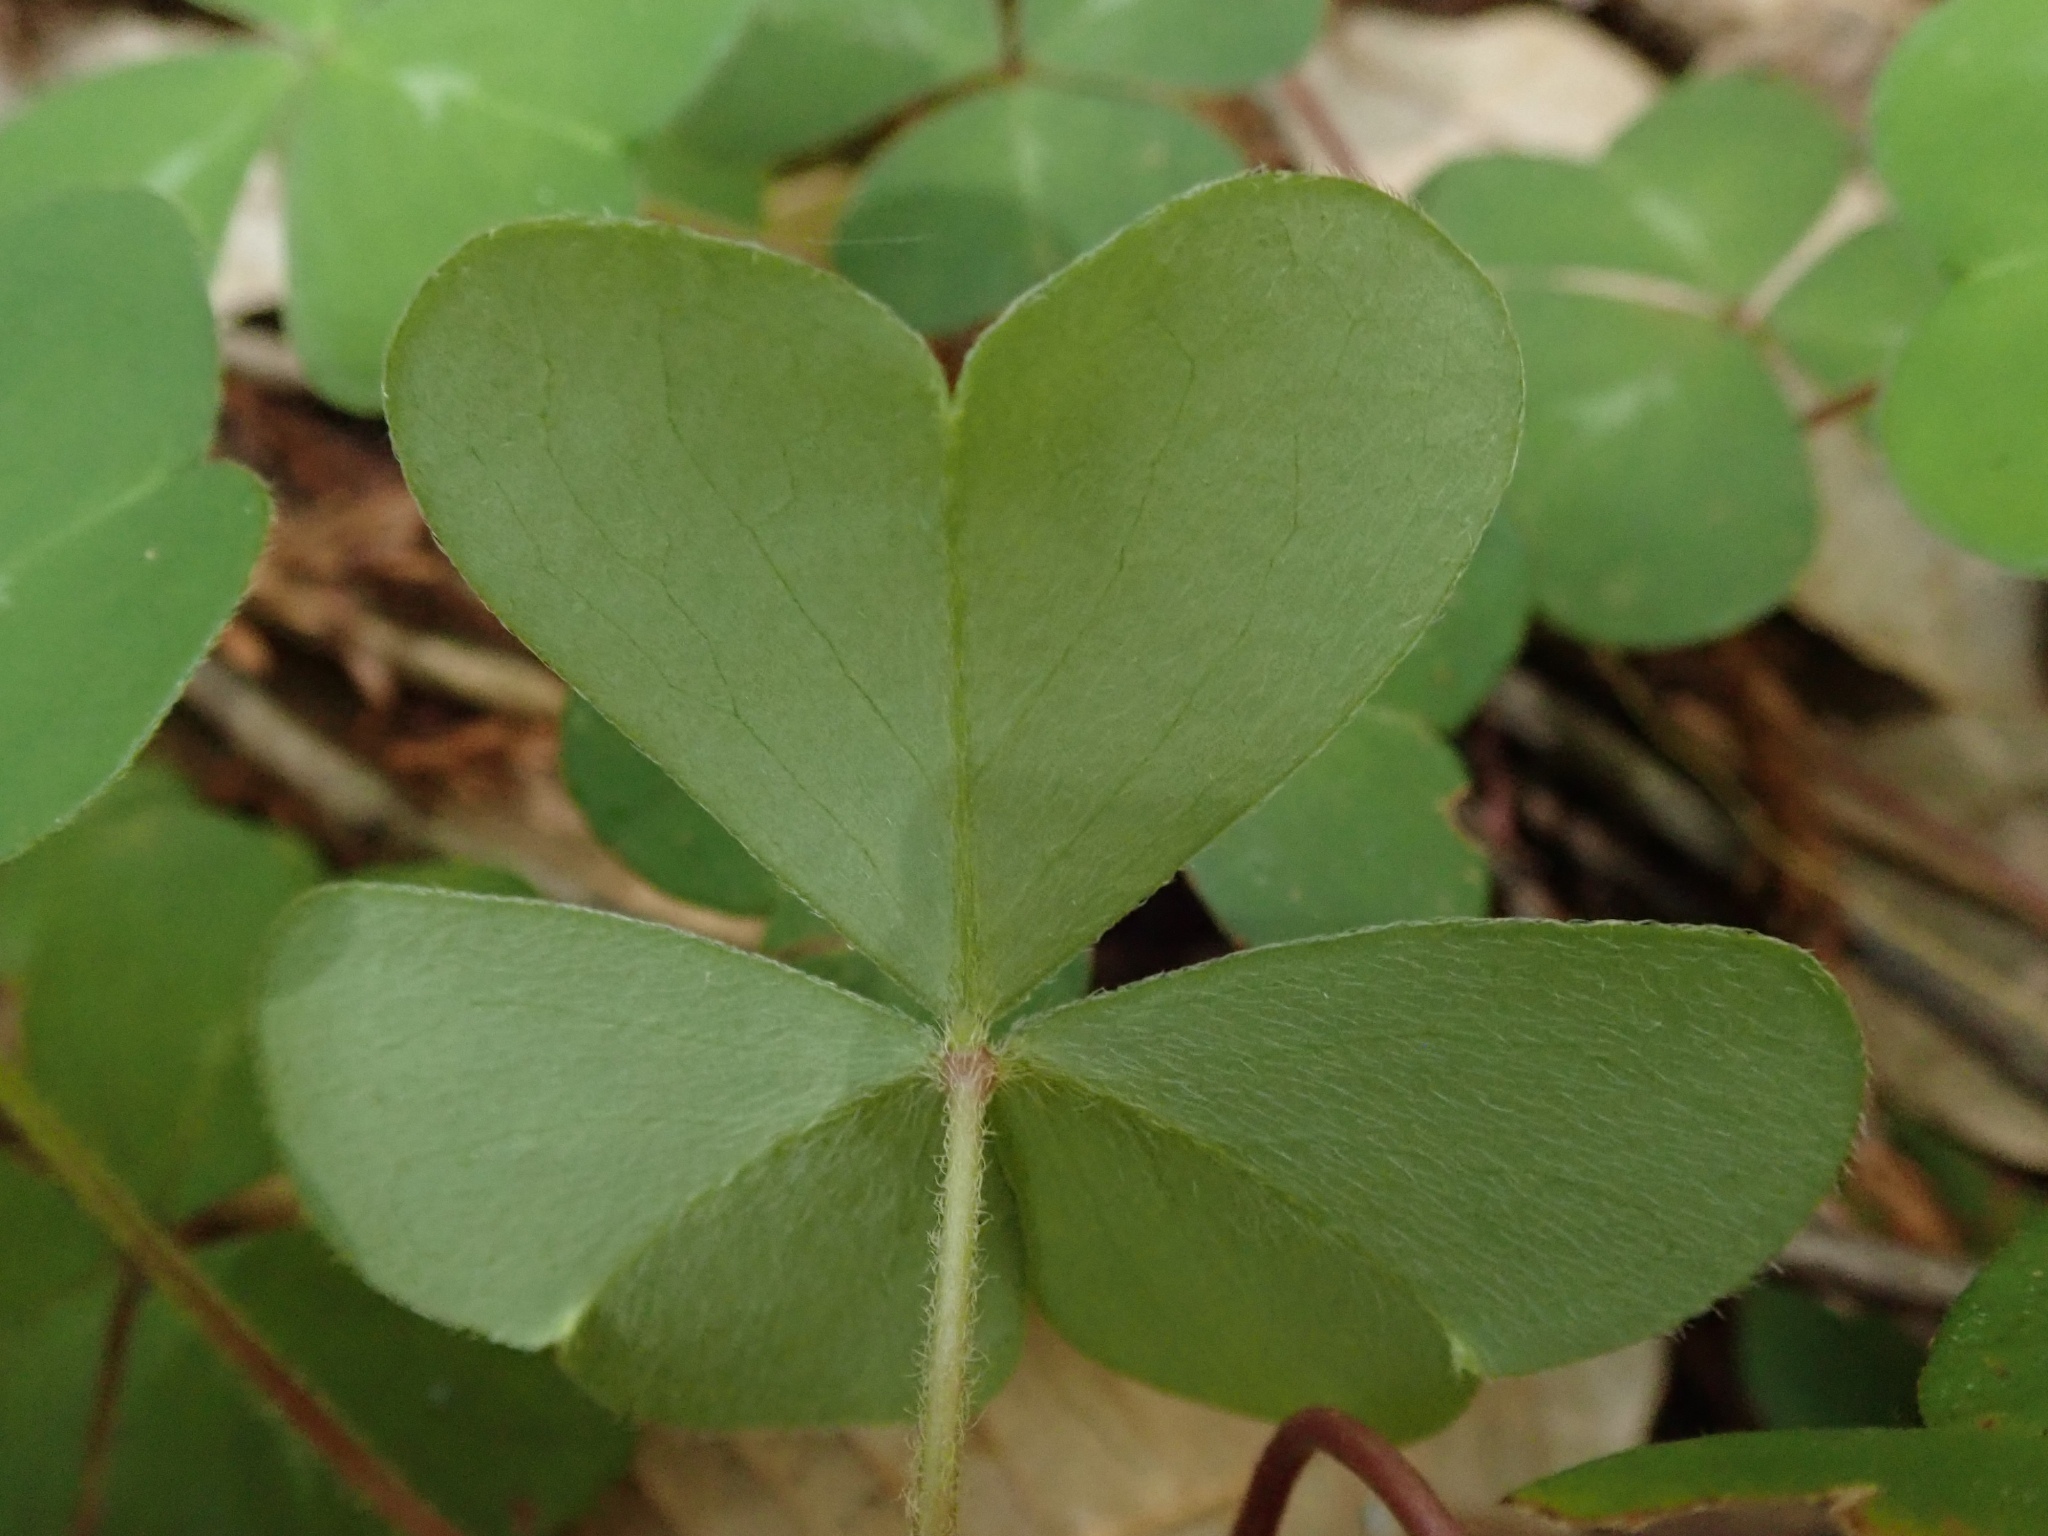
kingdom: Plantae
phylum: Tracheophyta
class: Magnoliopsida
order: Oxalidales
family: Oxalidaceae
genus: Oxalis
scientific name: Oxalis oregana
